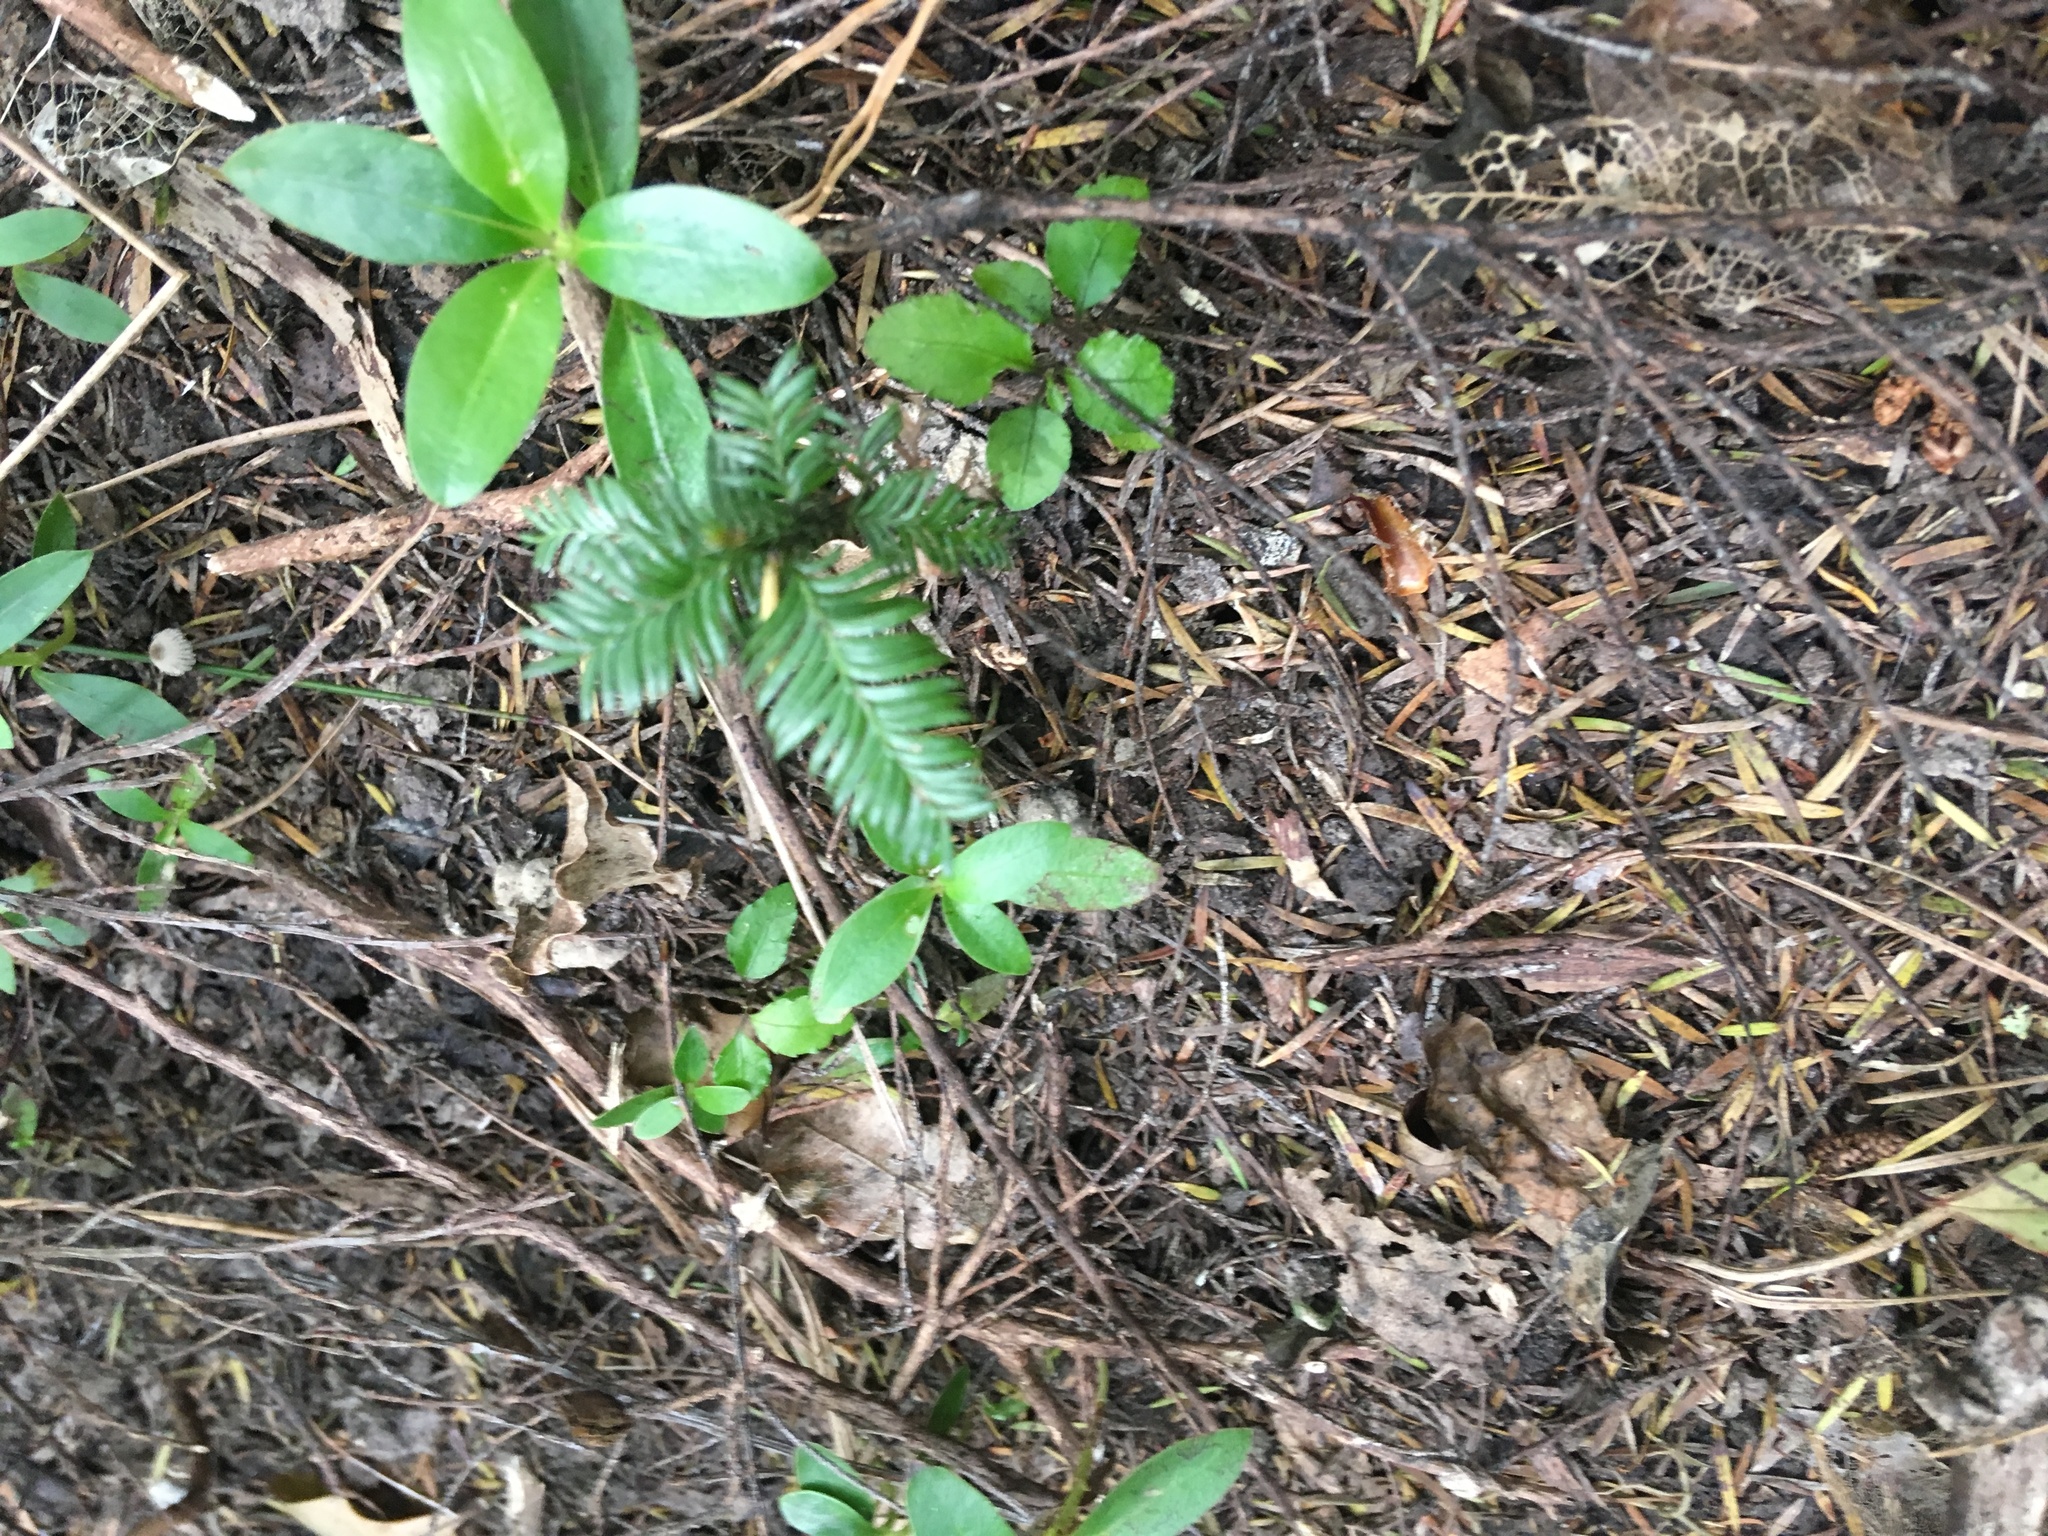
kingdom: Plantae
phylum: Tracheophyta
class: Pinopsida
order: Pinales
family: Podocarpaceae
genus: Dacrycarpus
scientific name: Dacrycarpus dacrydioides
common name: White pine
